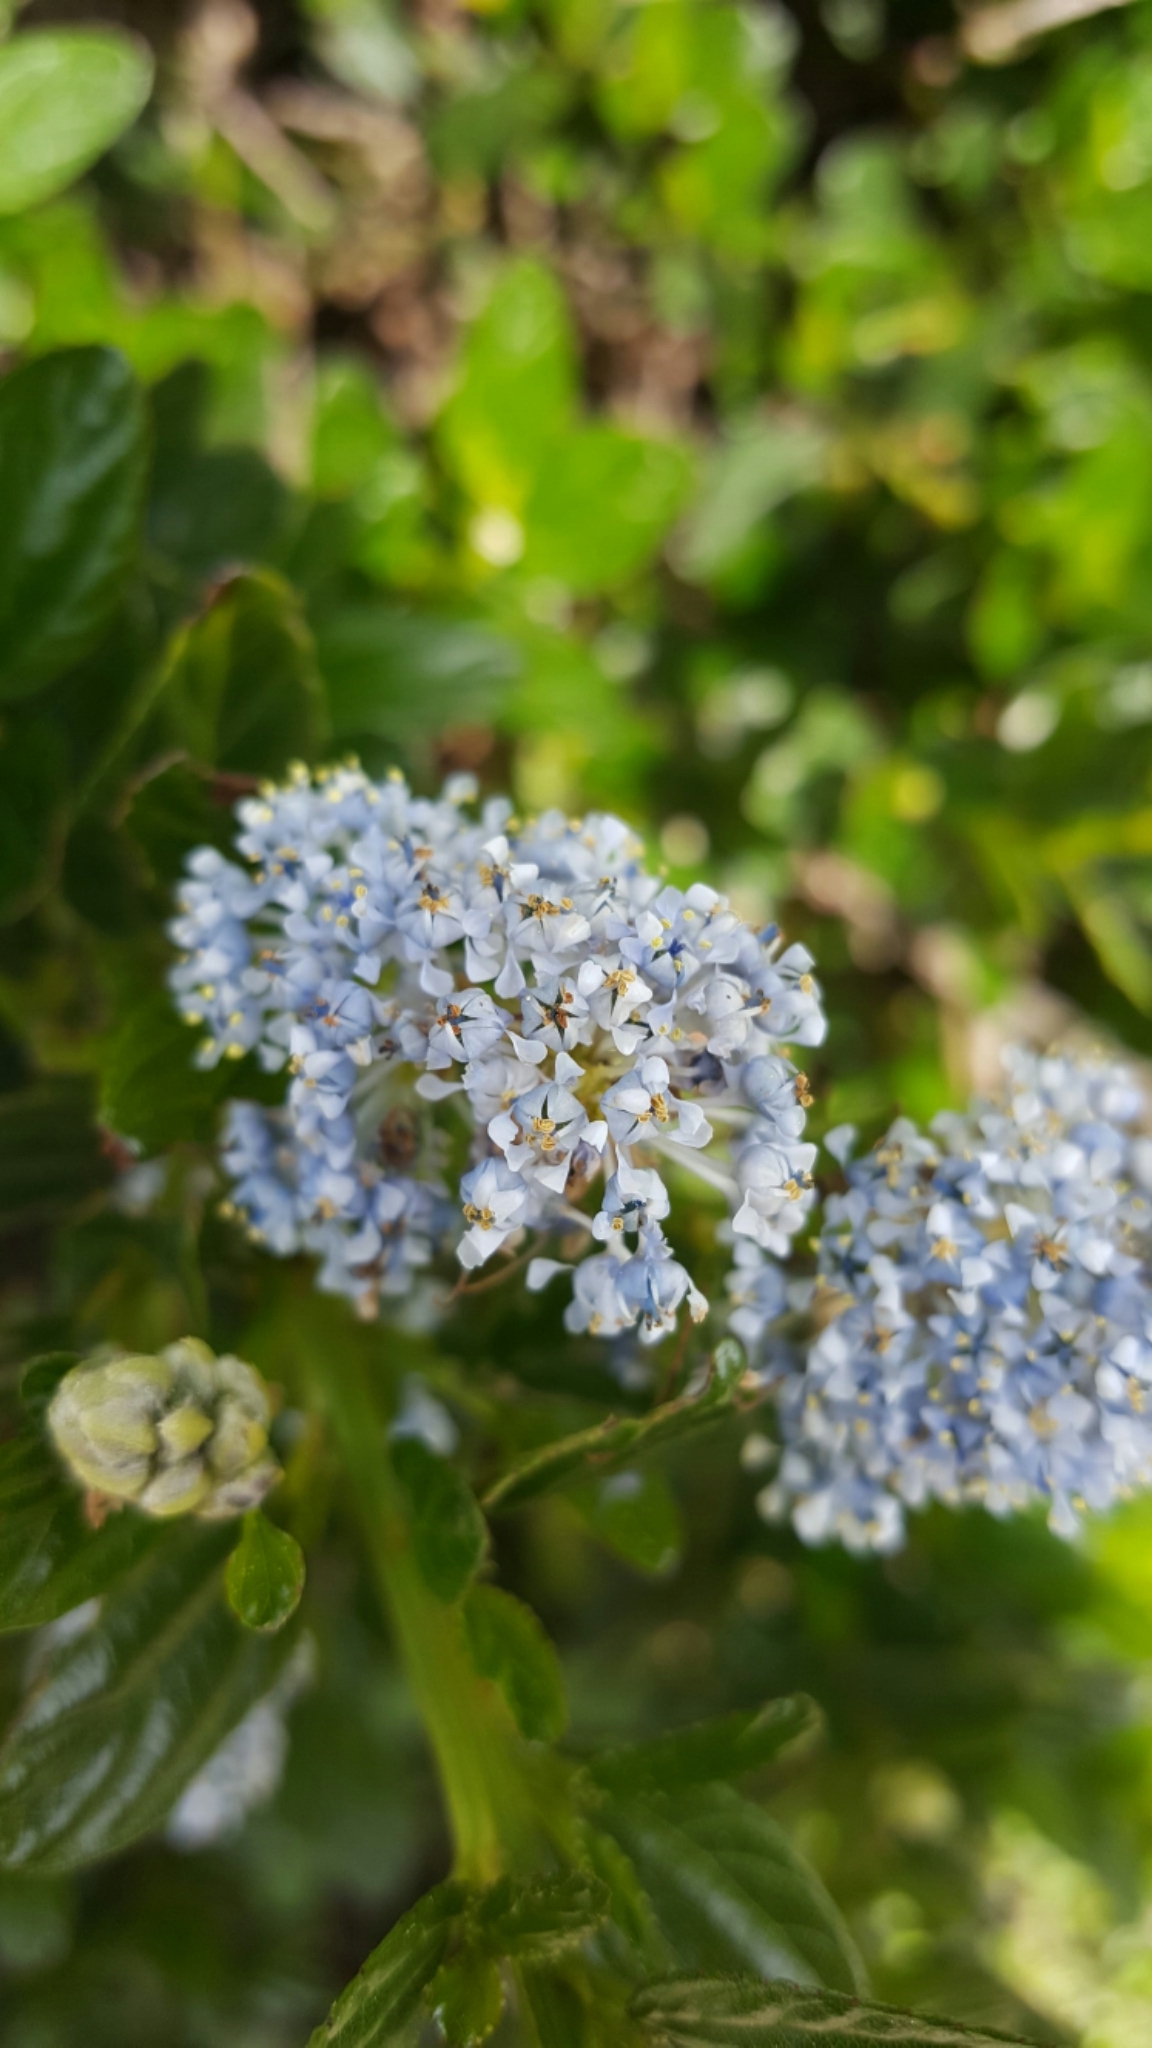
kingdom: Plantae
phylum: Tracheophyta
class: Magnoliopsida
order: Rosales
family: Rhamnaceae
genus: Ceanothus
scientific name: Ceanothus thyrsiflorus
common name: California-lilac
